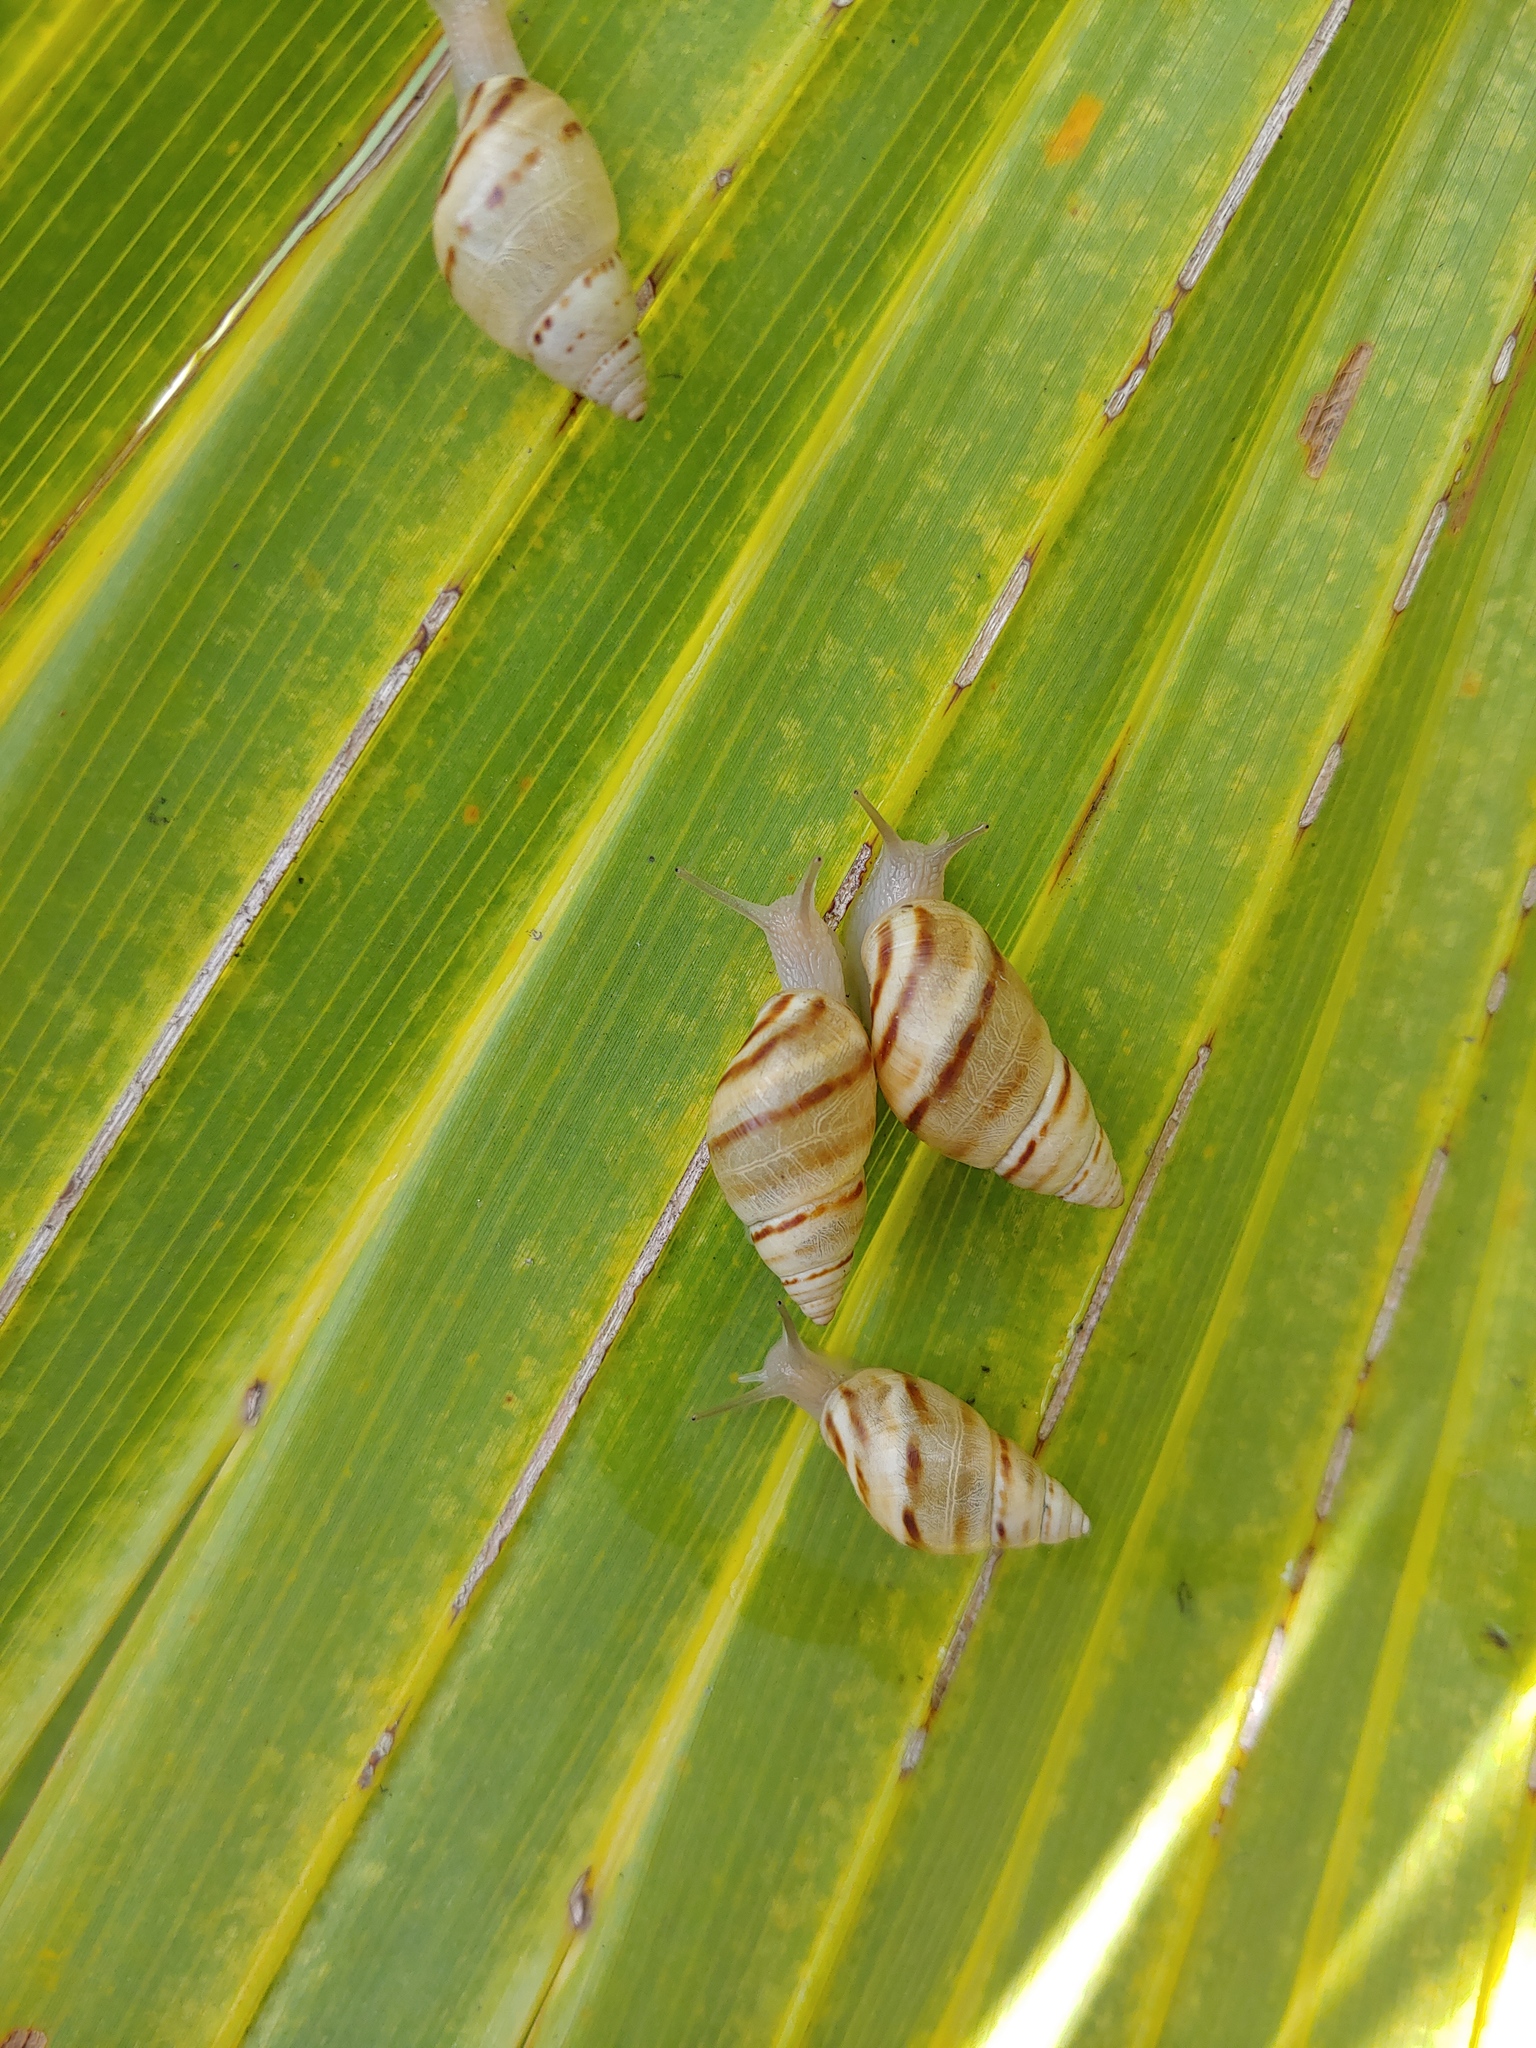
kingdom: Animalia
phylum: Mollusca
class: Gastropoda
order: Stylommatophora
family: Bulimulidae
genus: Drymaeus
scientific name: Drymaeus
